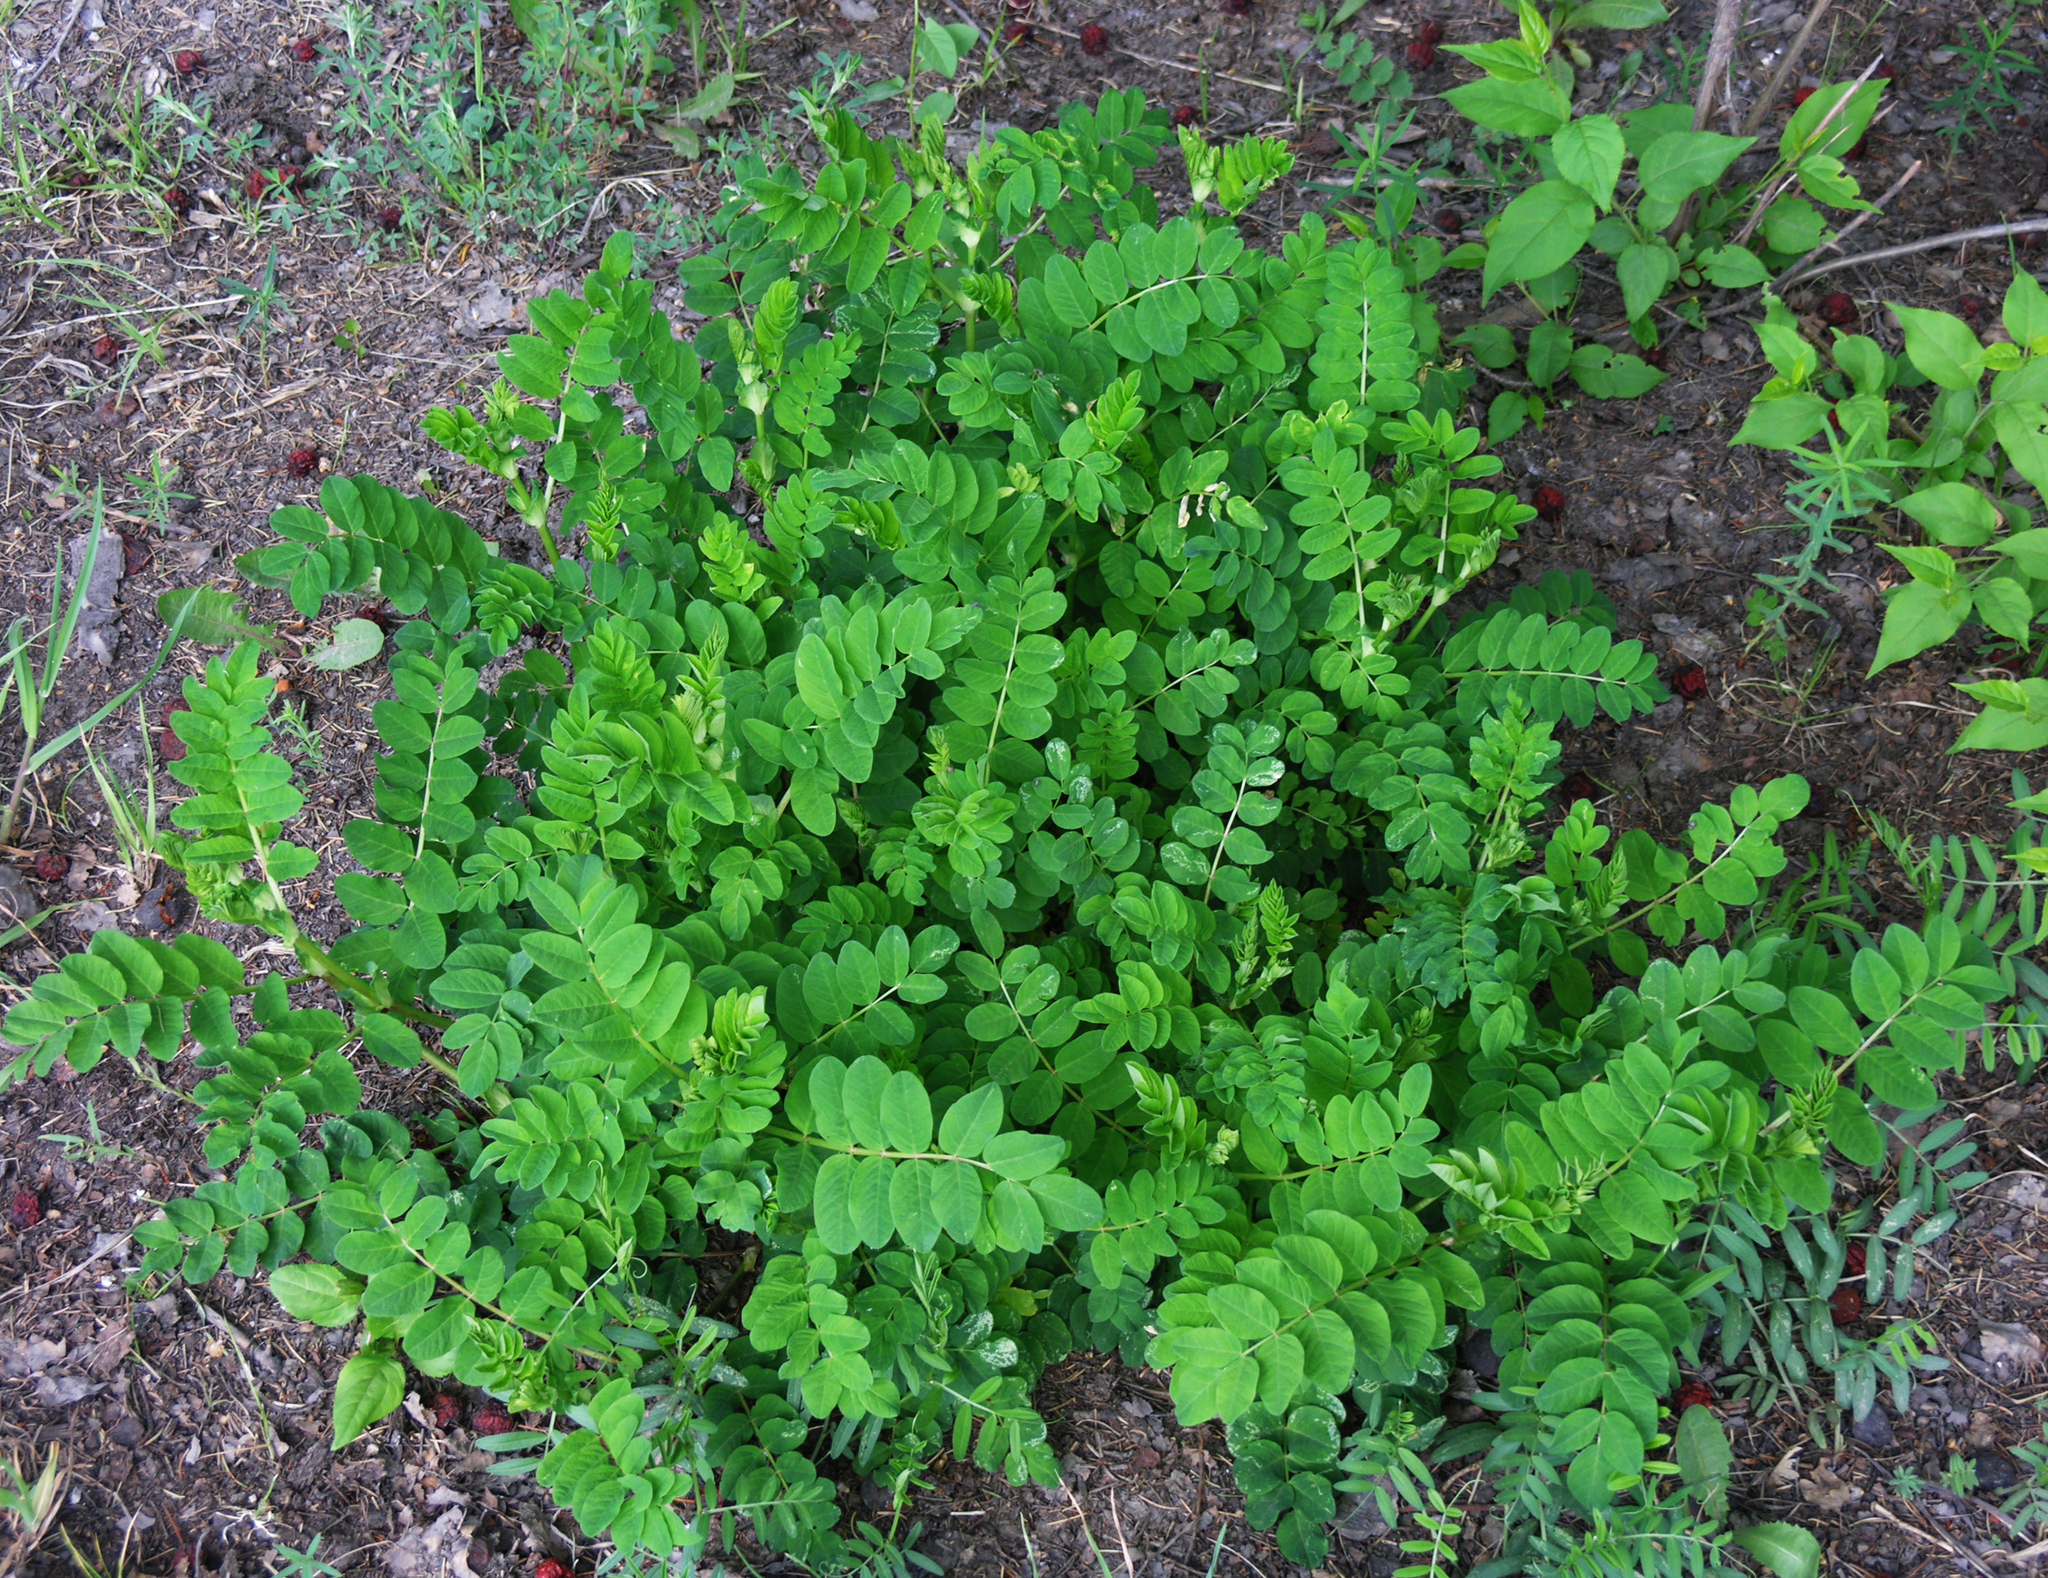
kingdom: Plantae
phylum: Tracheophyta
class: Magnoliopsida
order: Fabales
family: Fabaceae
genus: Astragalus
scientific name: Astragalus glycyphyllos
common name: Wild liquorice
